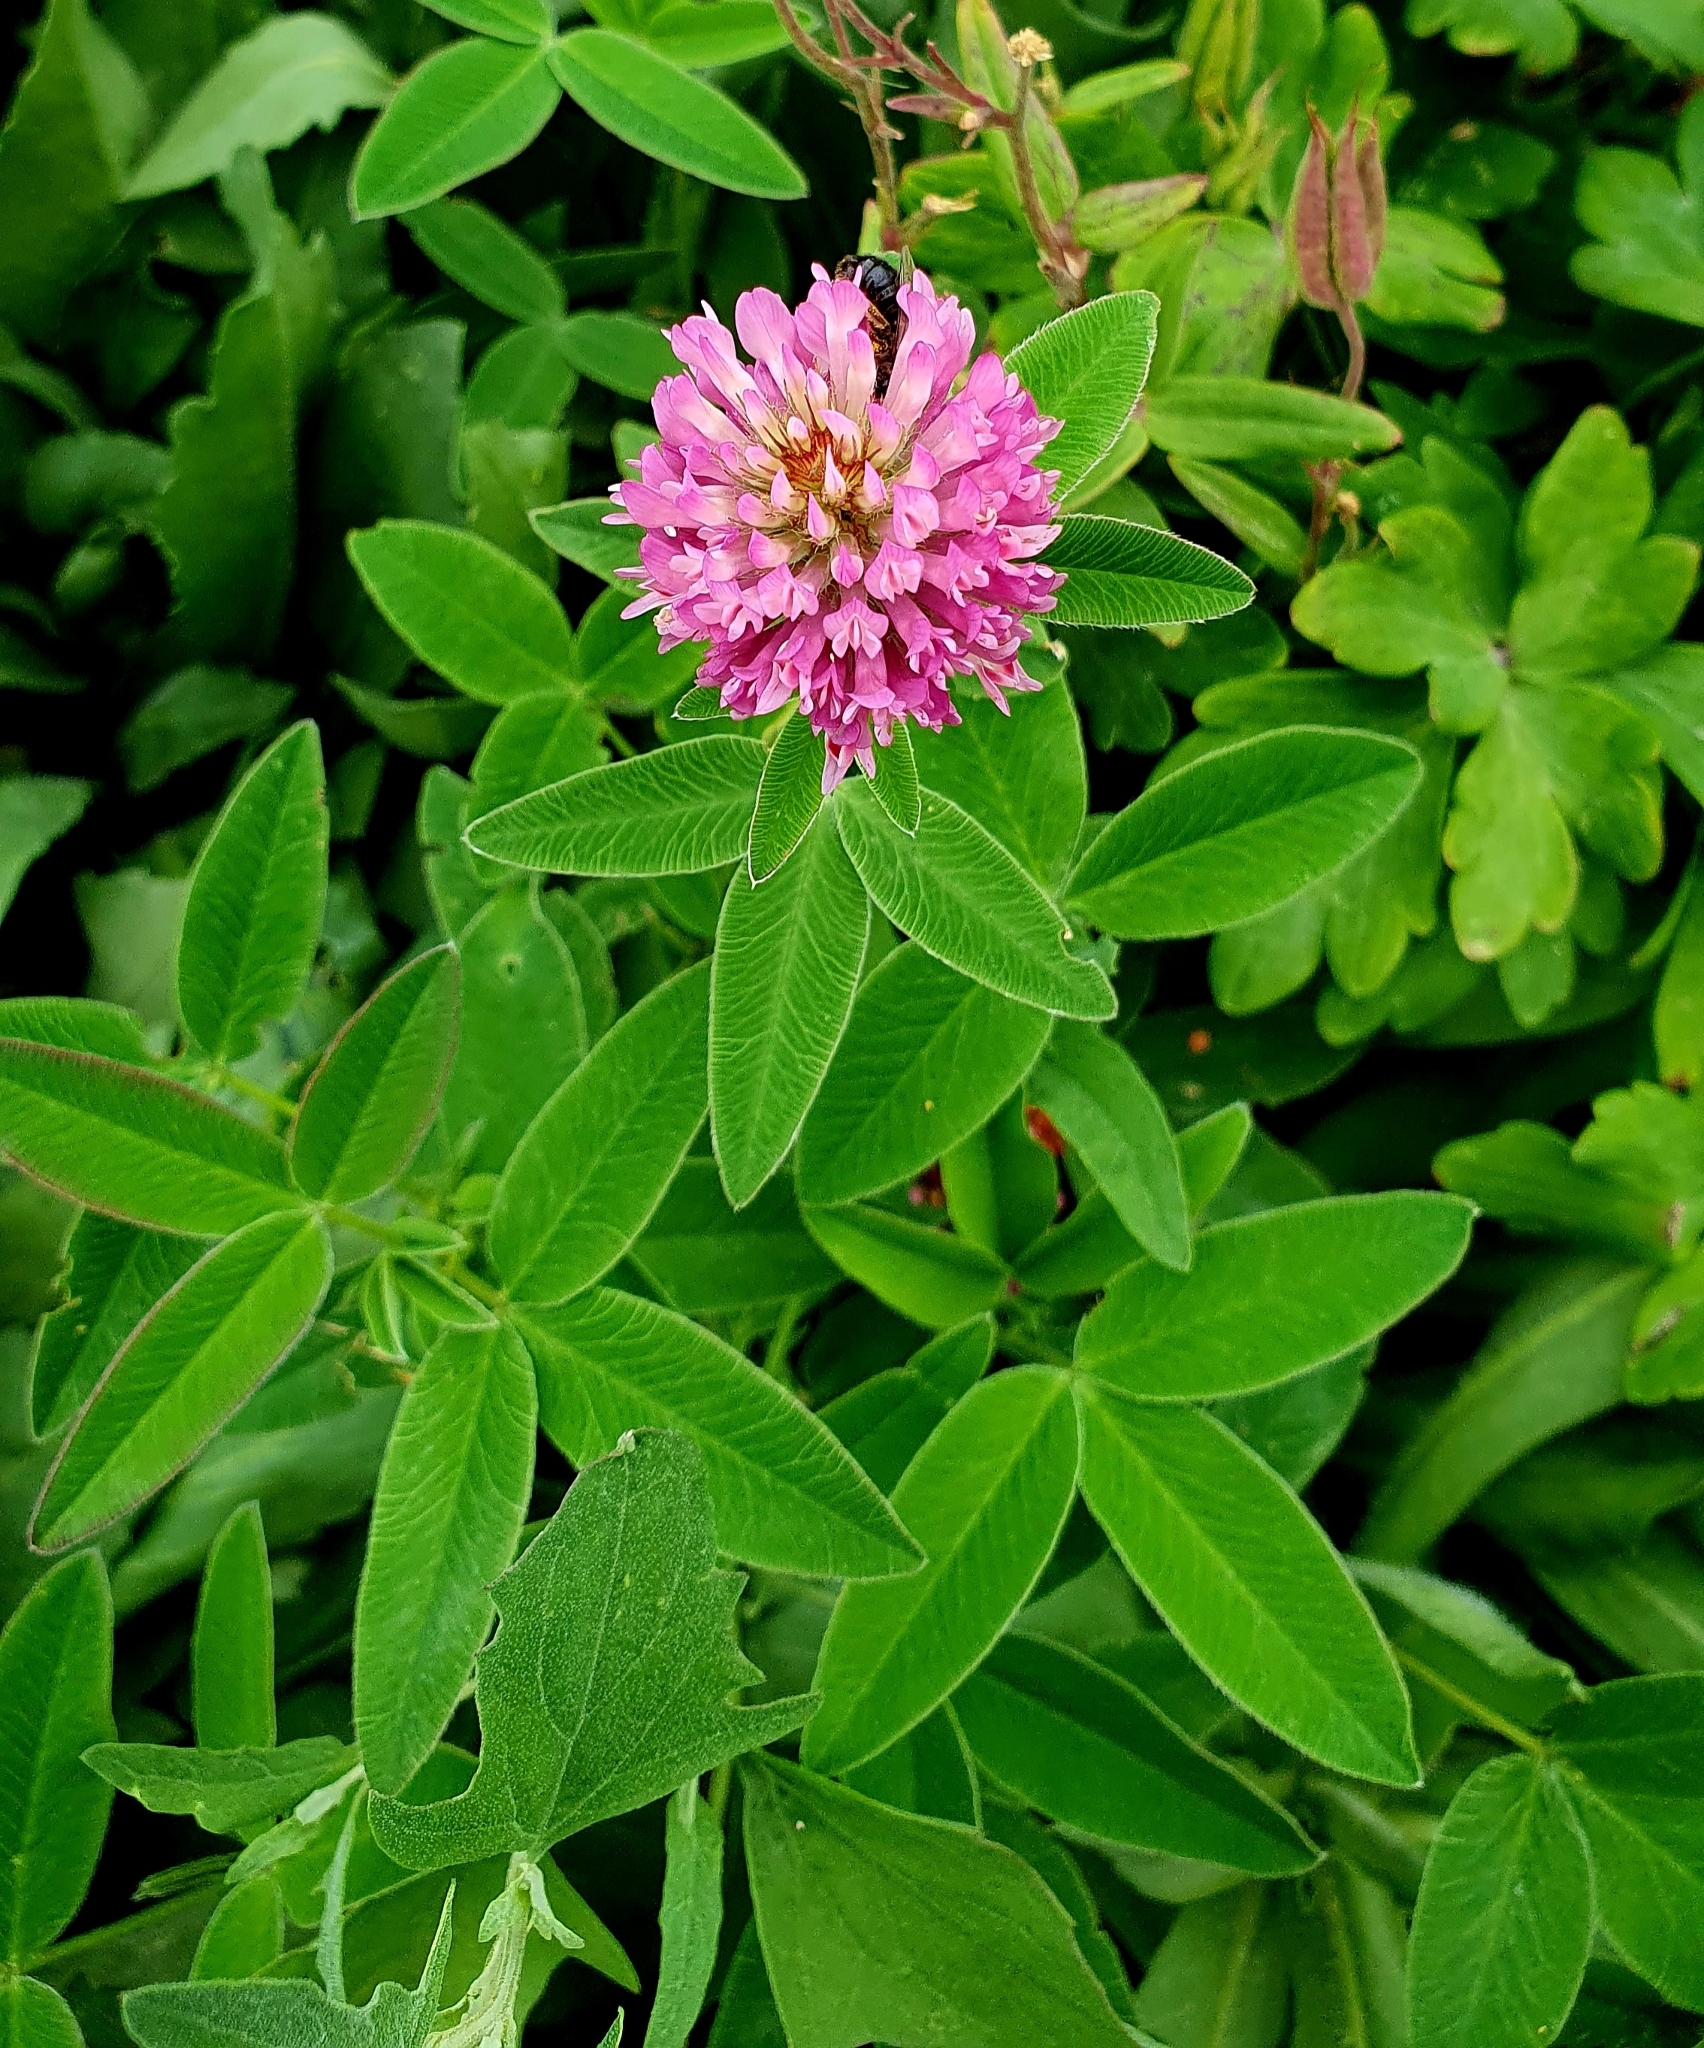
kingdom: Plantae
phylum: Tracheophyta
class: Magnoliopsida
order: Fabales
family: Fabaceae
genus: Trifolium
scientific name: Trifolium medium
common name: Zigzag clover
